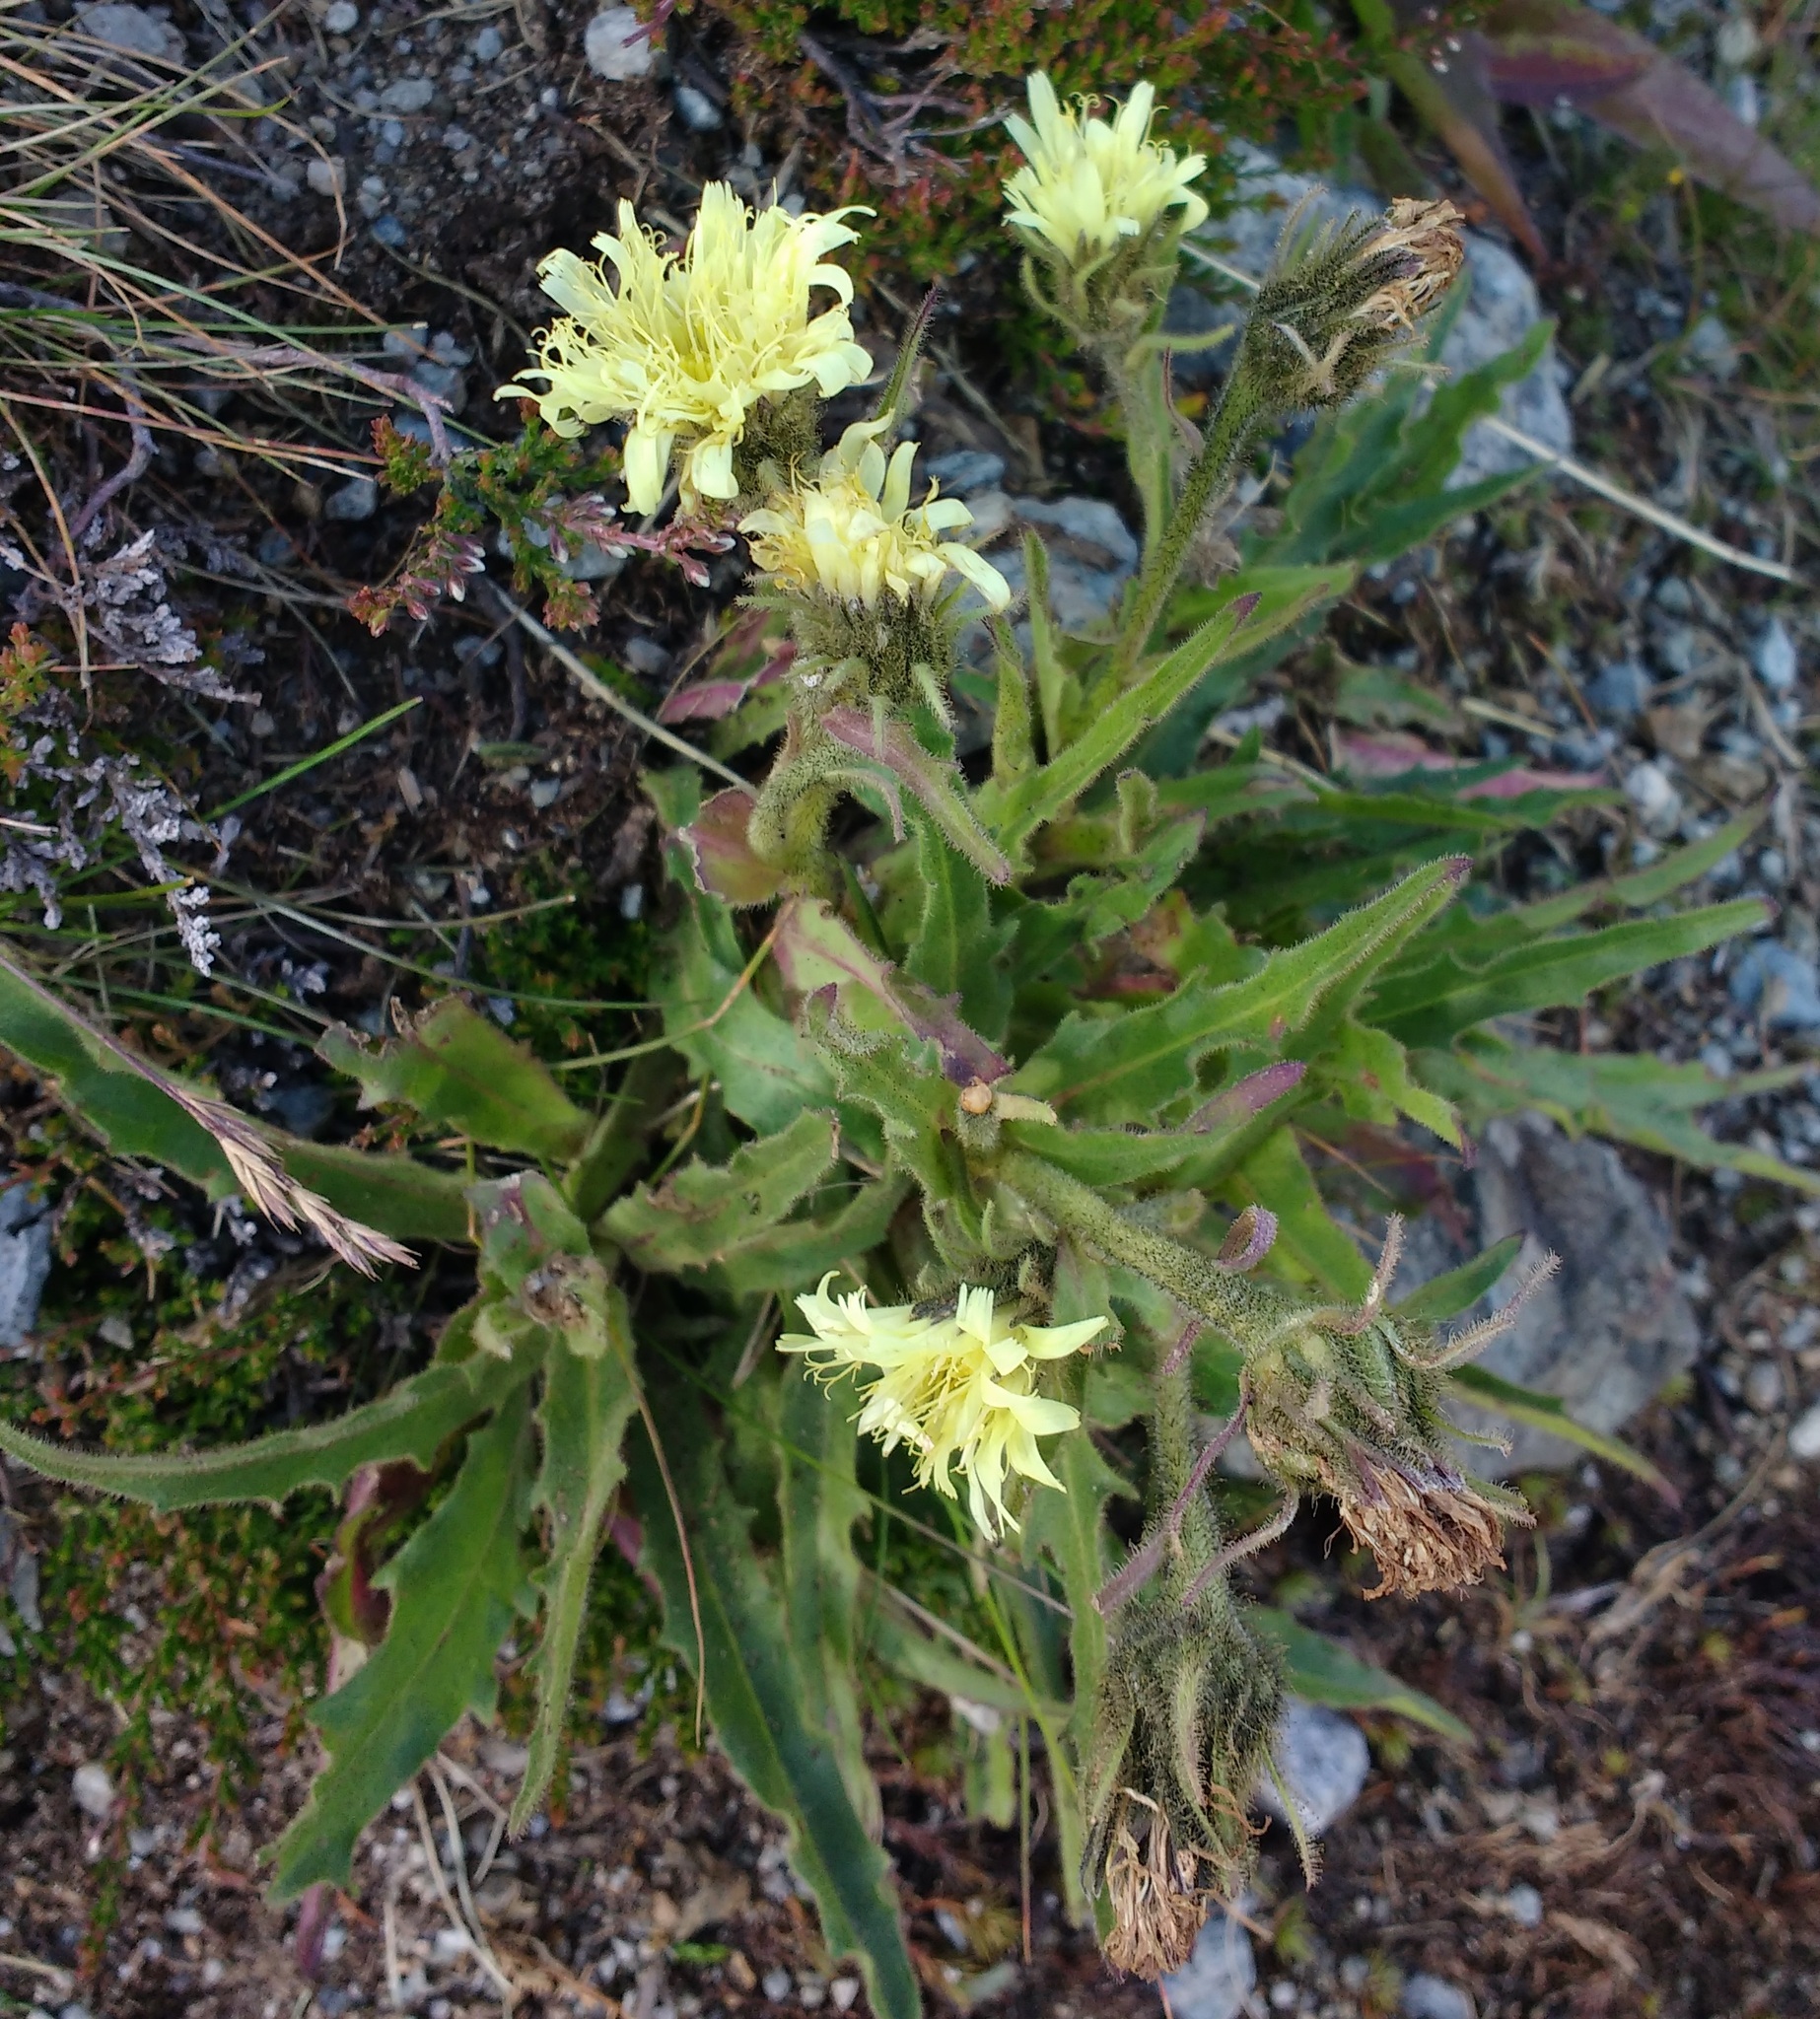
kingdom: Plantae
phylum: Tracheophyta
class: Magnoliopsida
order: Asterales
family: Asteraceae
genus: Schlagintweitia
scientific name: Schlagintweitia intybacea
